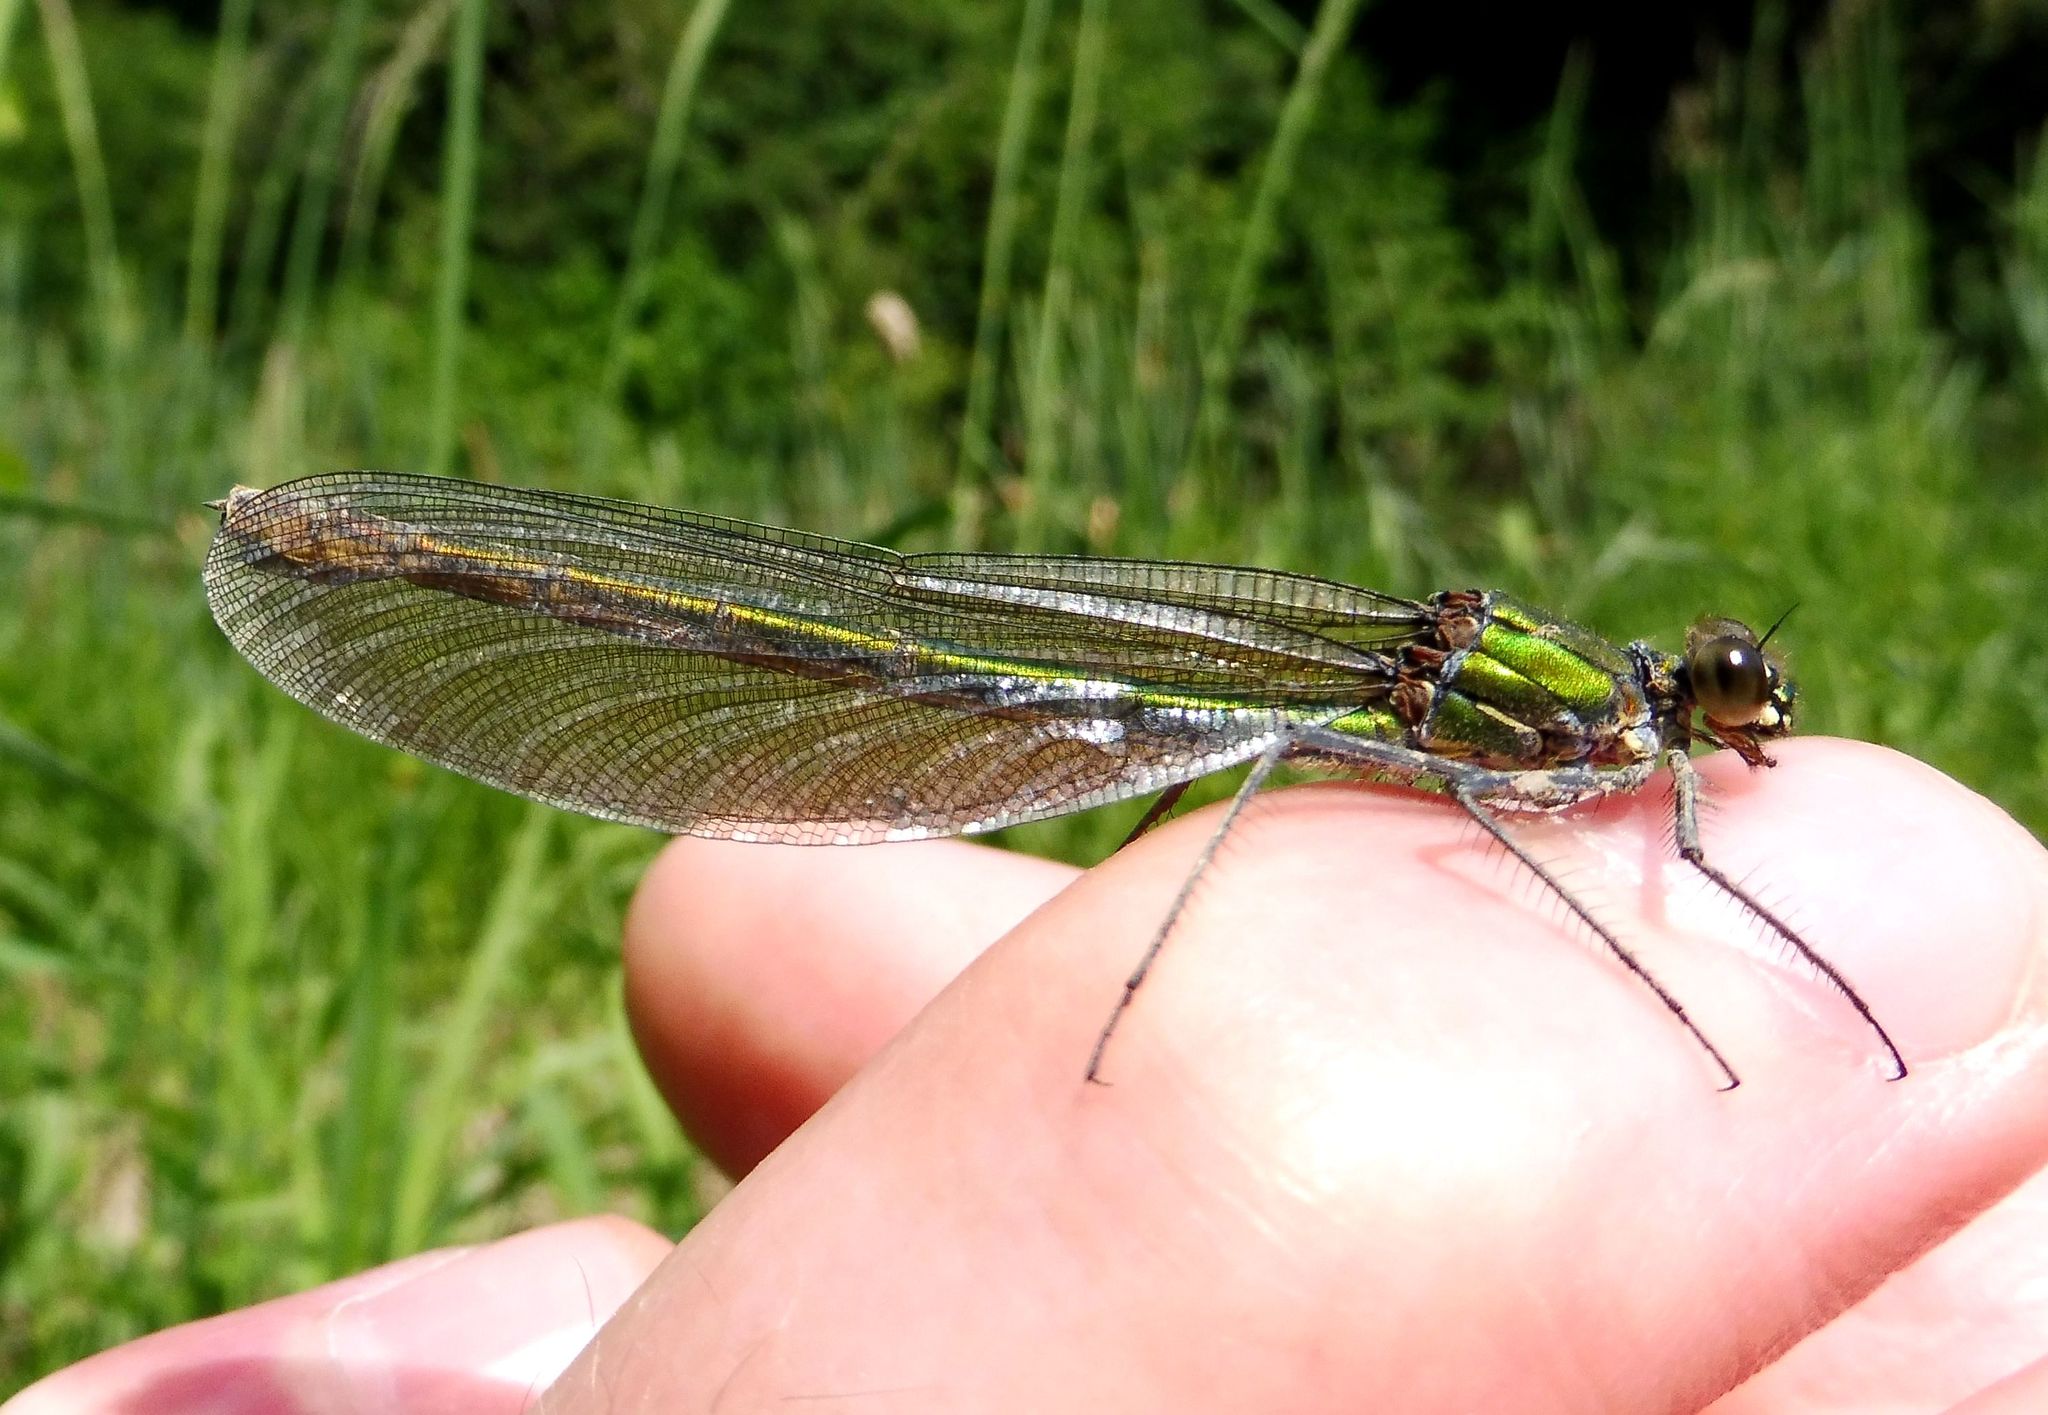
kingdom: Animalia
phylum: Arthropoda
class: Insecta
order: Odonata
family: Calopterygidae
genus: Calopteryx
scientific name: Calopteryx splendens
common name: Banded demoiselle
